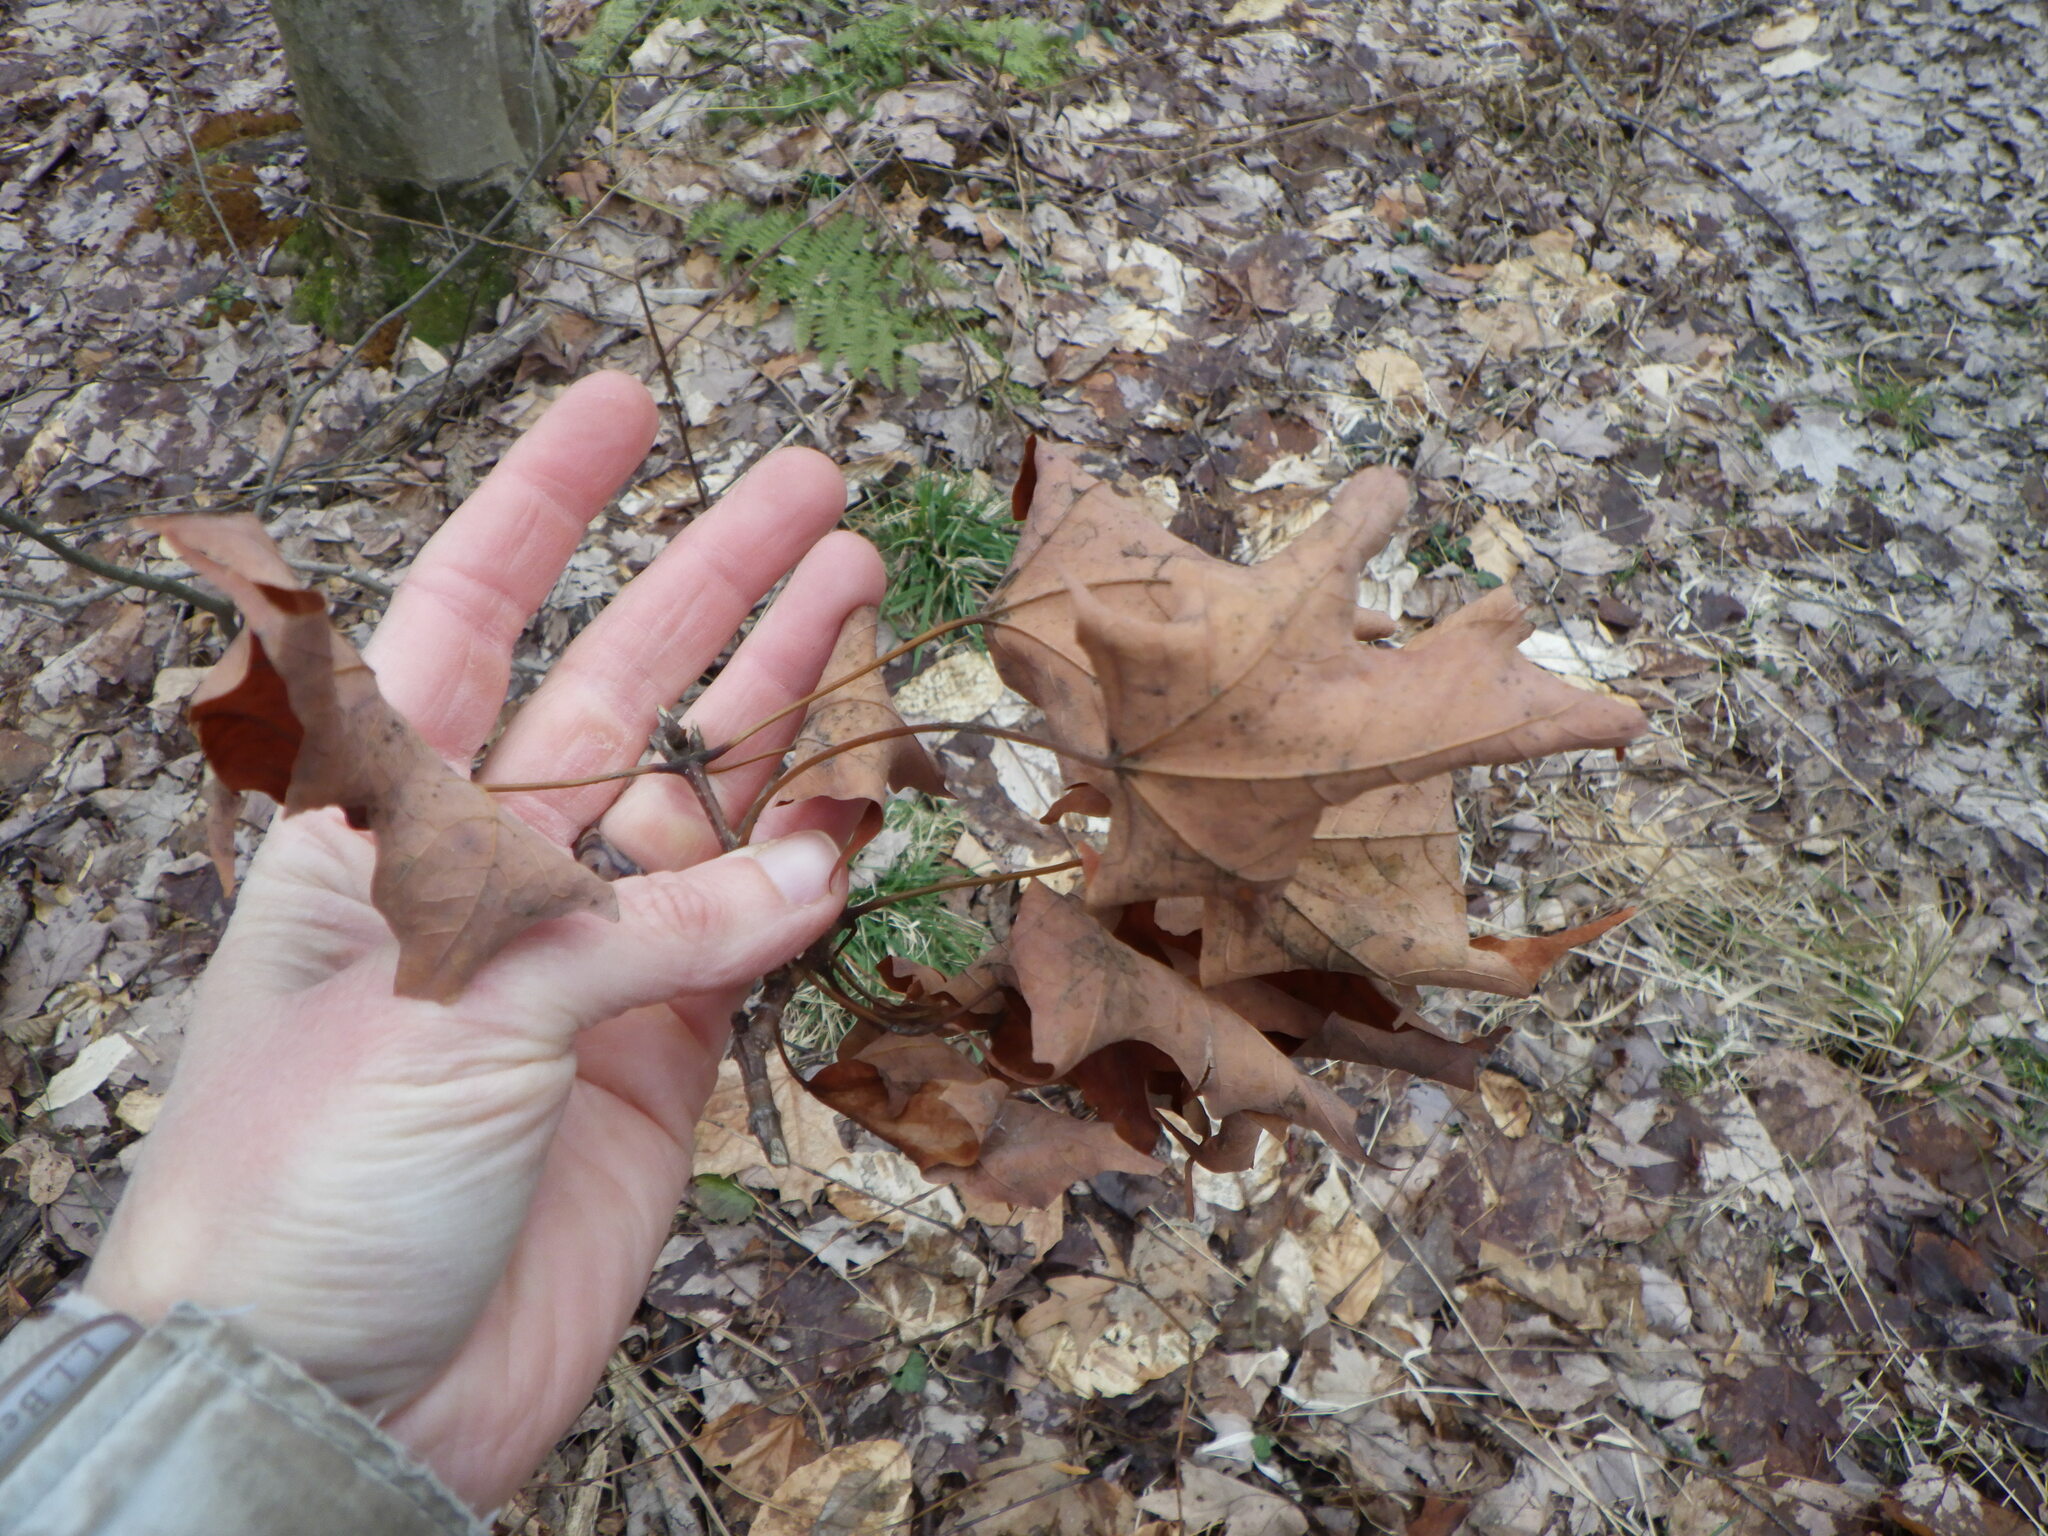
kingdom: Plantae
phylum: Tracheophyta
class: Magnoliopsida
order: Sapindales
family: Sapindaceae
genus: Acer
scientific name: Acer saccharum
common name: Sugar maple
